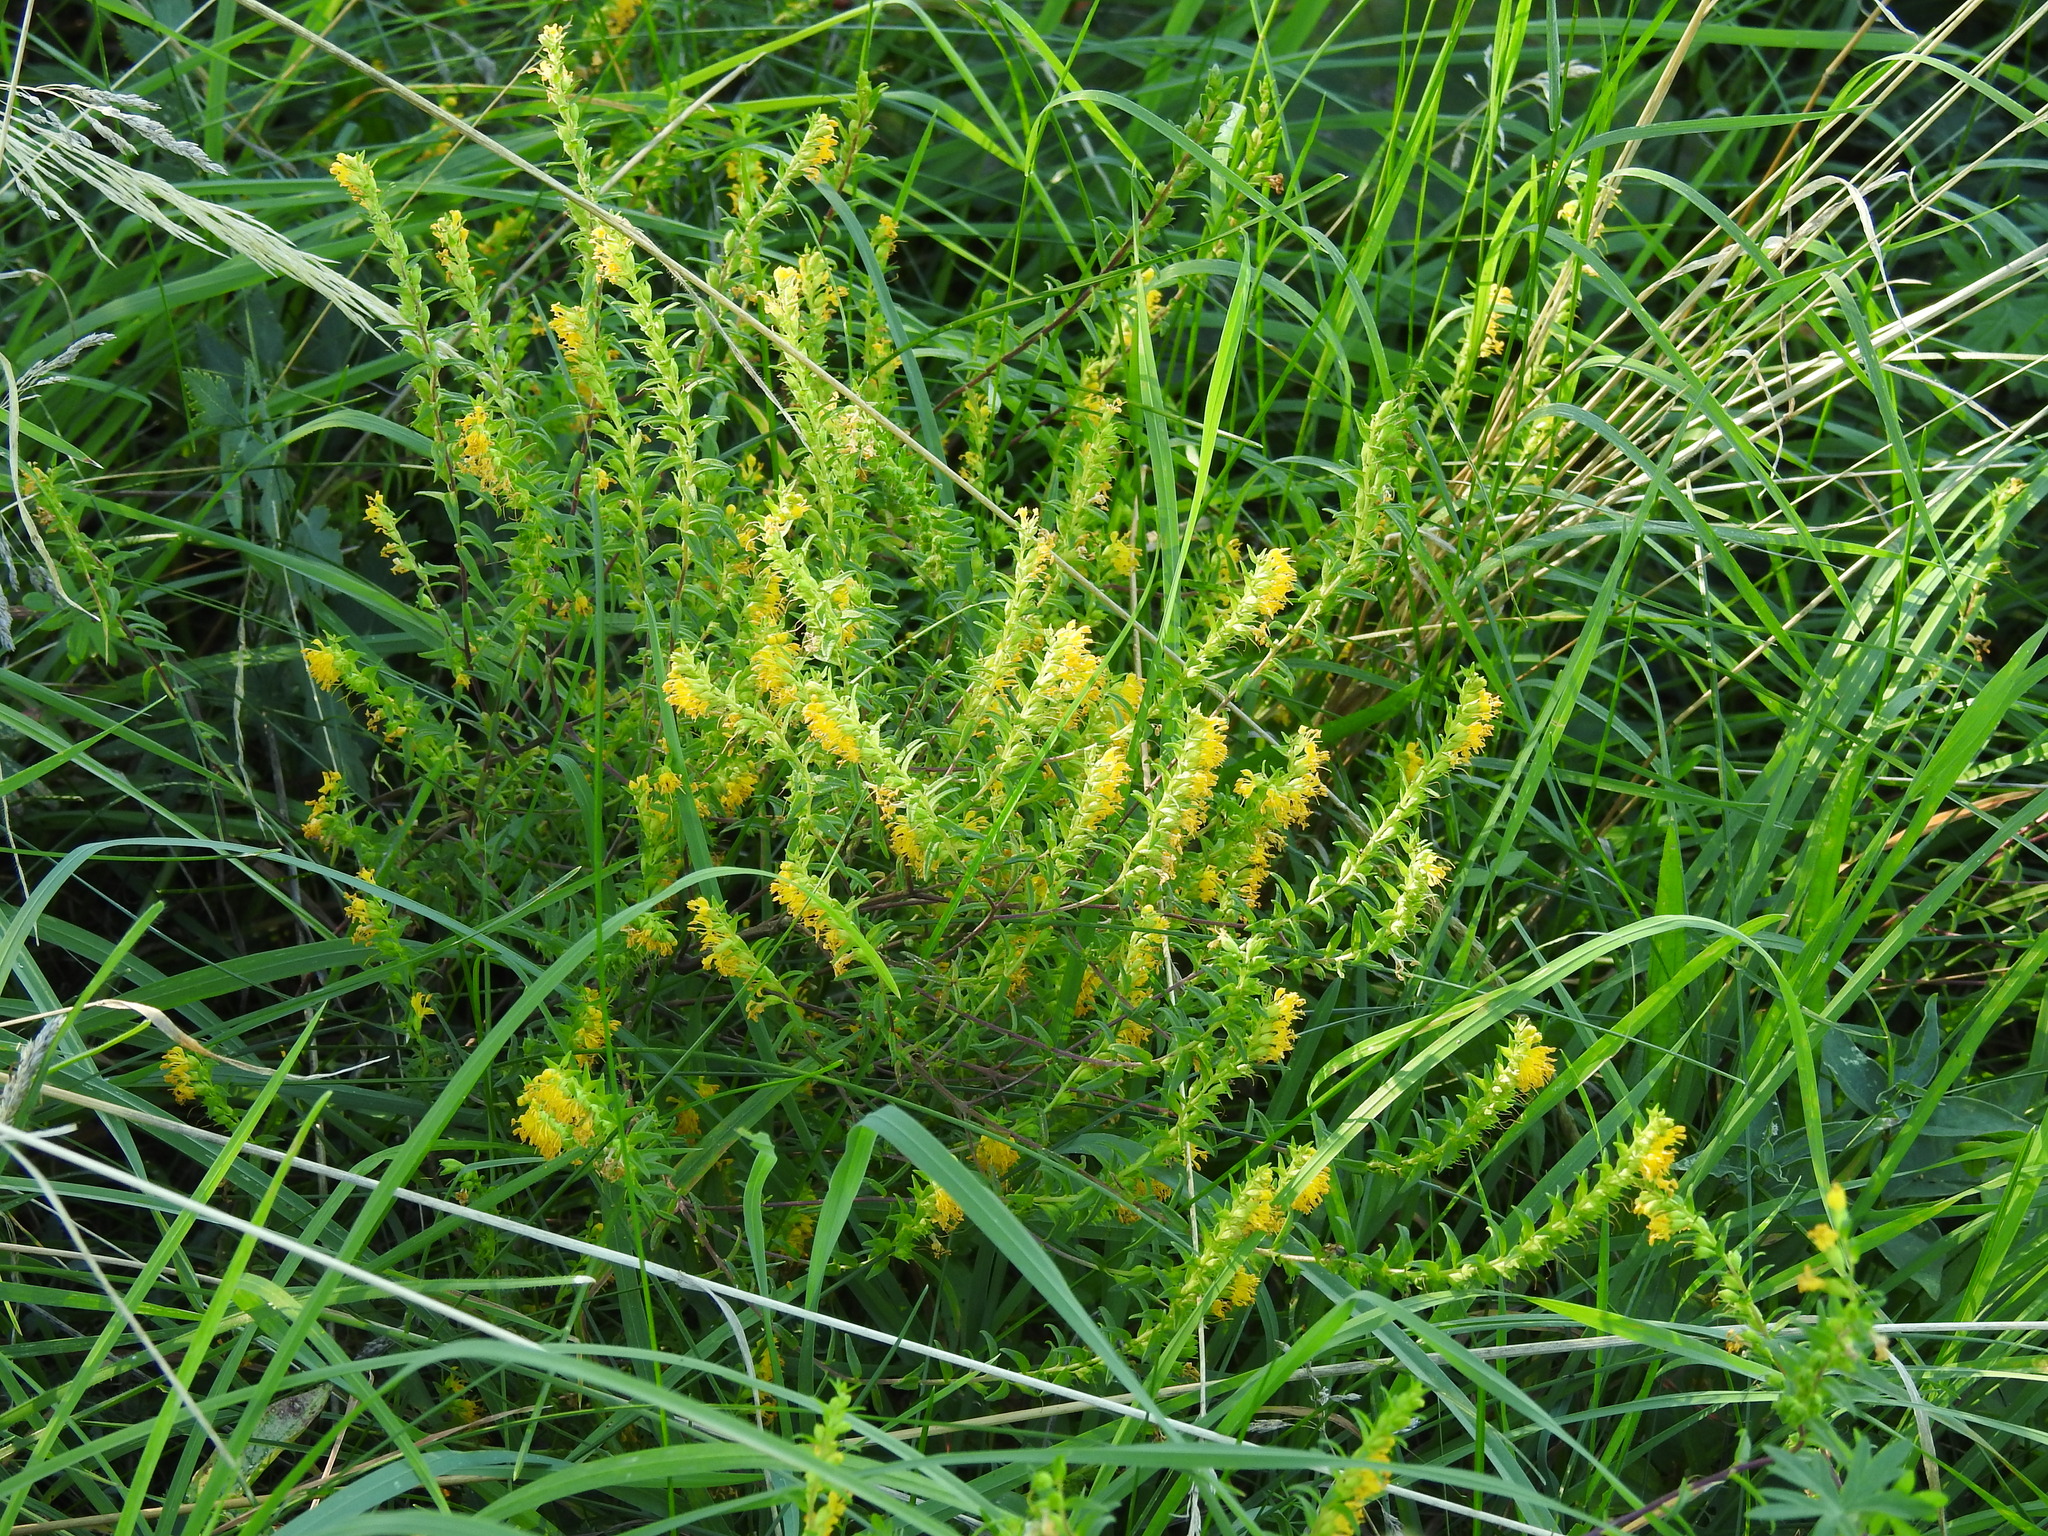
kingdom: Plantae
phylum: Tracheophyta
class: Magnoliopsida
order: Lamiales
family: Orobanchaceae
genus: Odontites
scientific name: Odontites luteus
